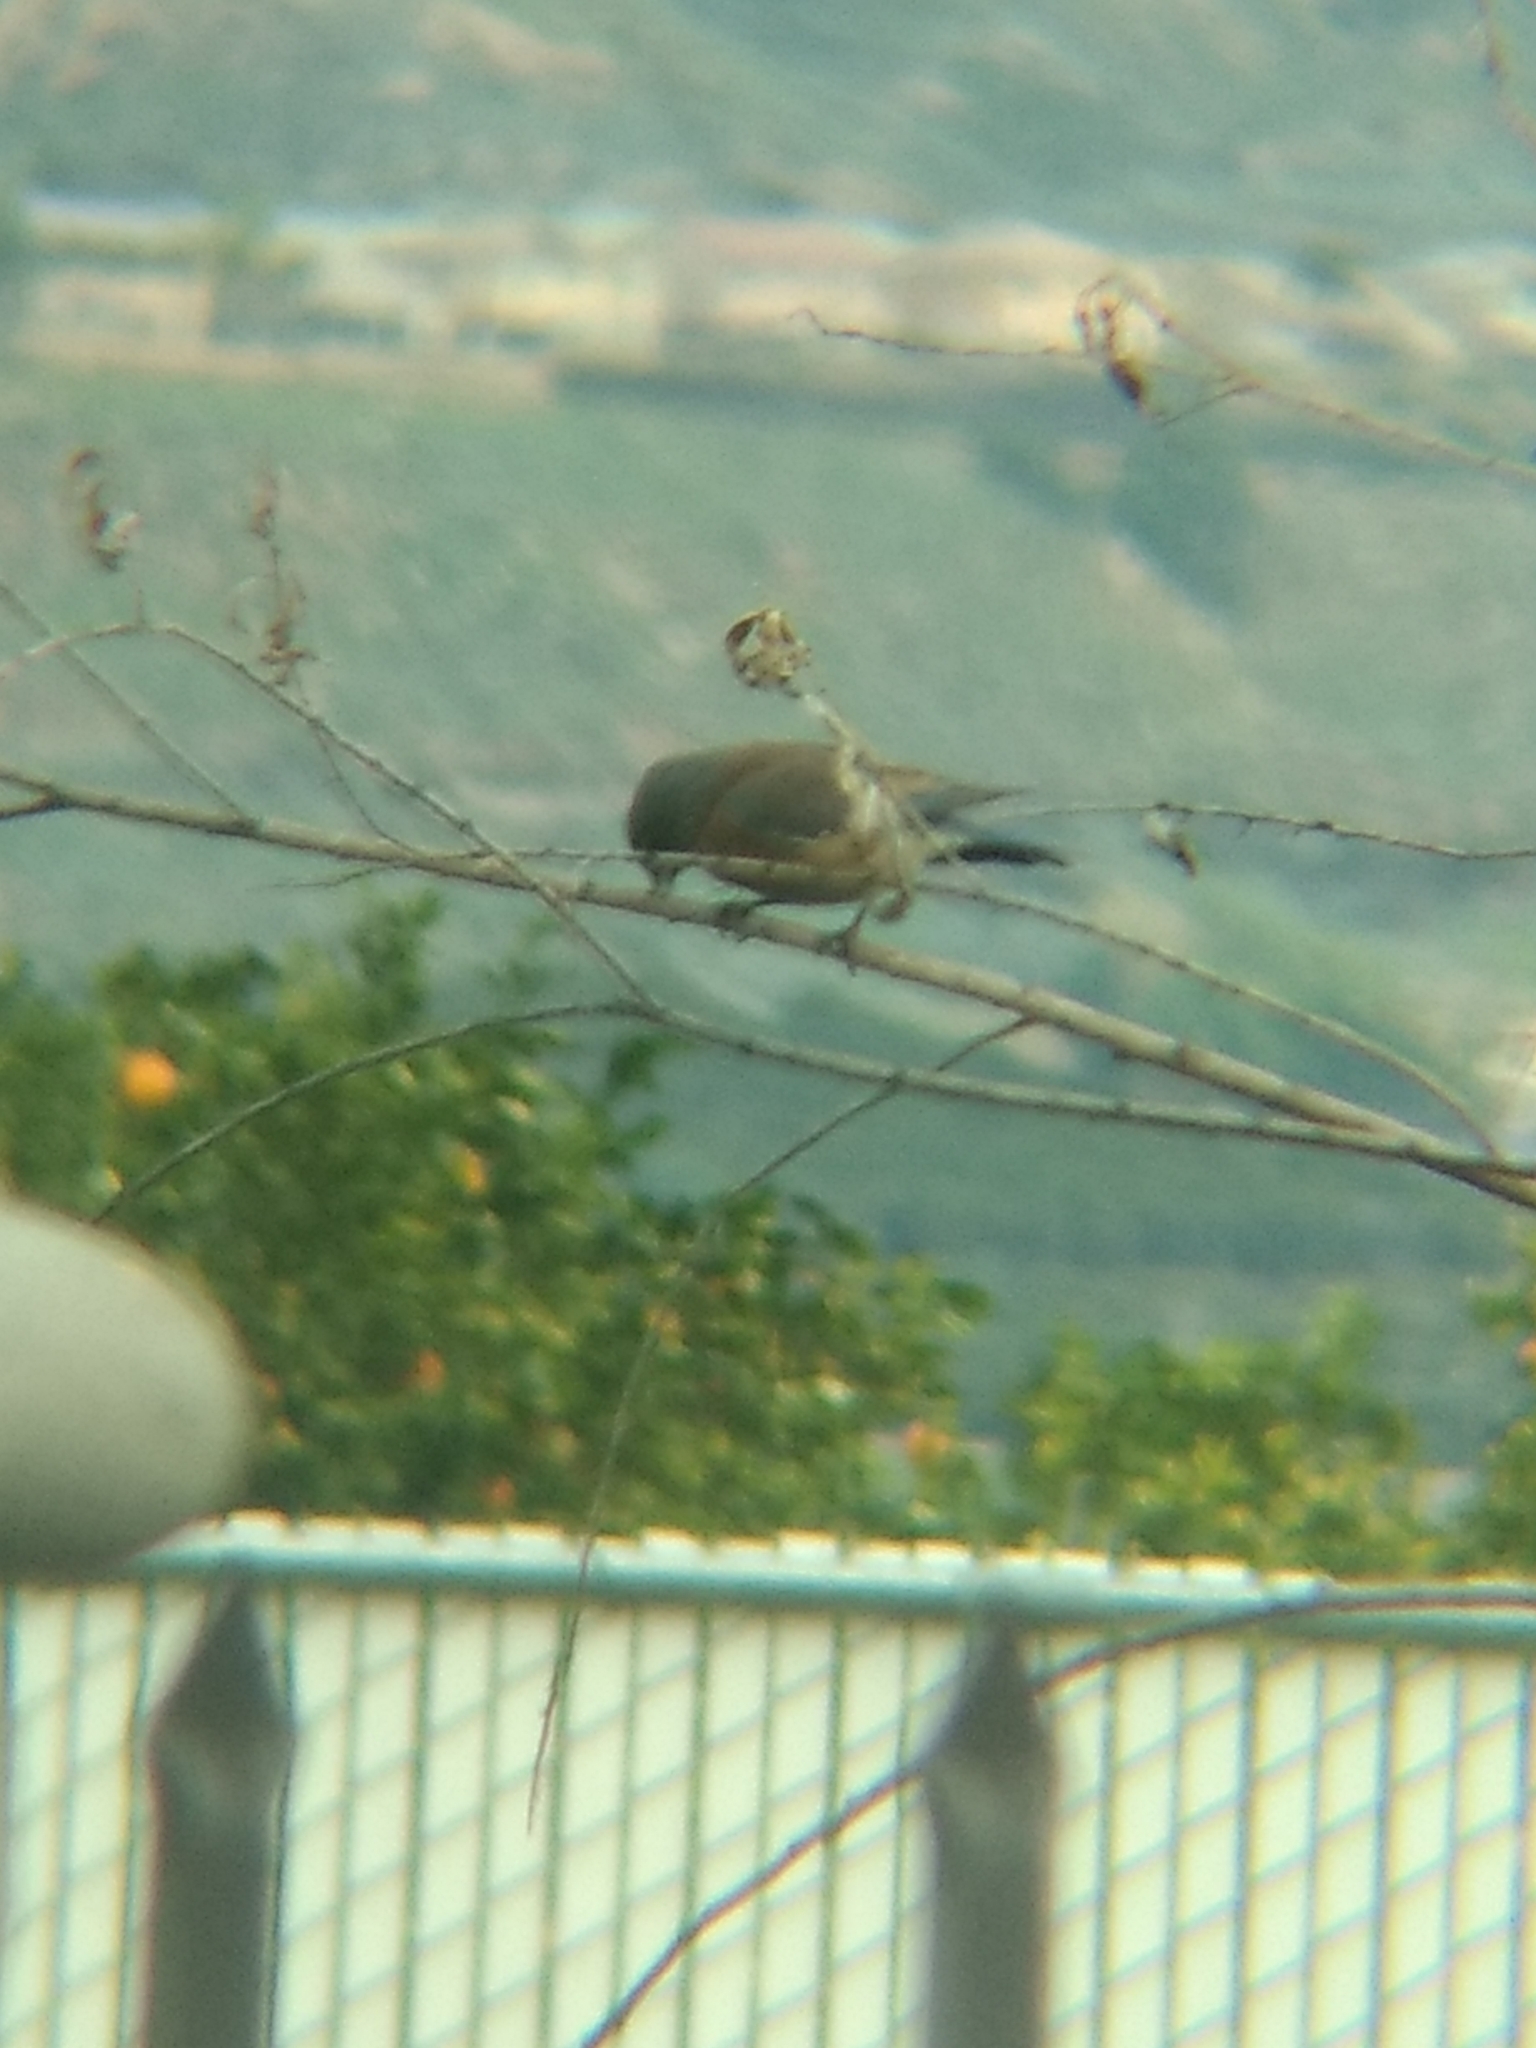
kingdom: Animalia
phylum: Chordata
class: Aves
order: Passeriformes
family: Turdidae
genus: Sialia
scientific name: Sialia mexicana
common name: Western bluebird
